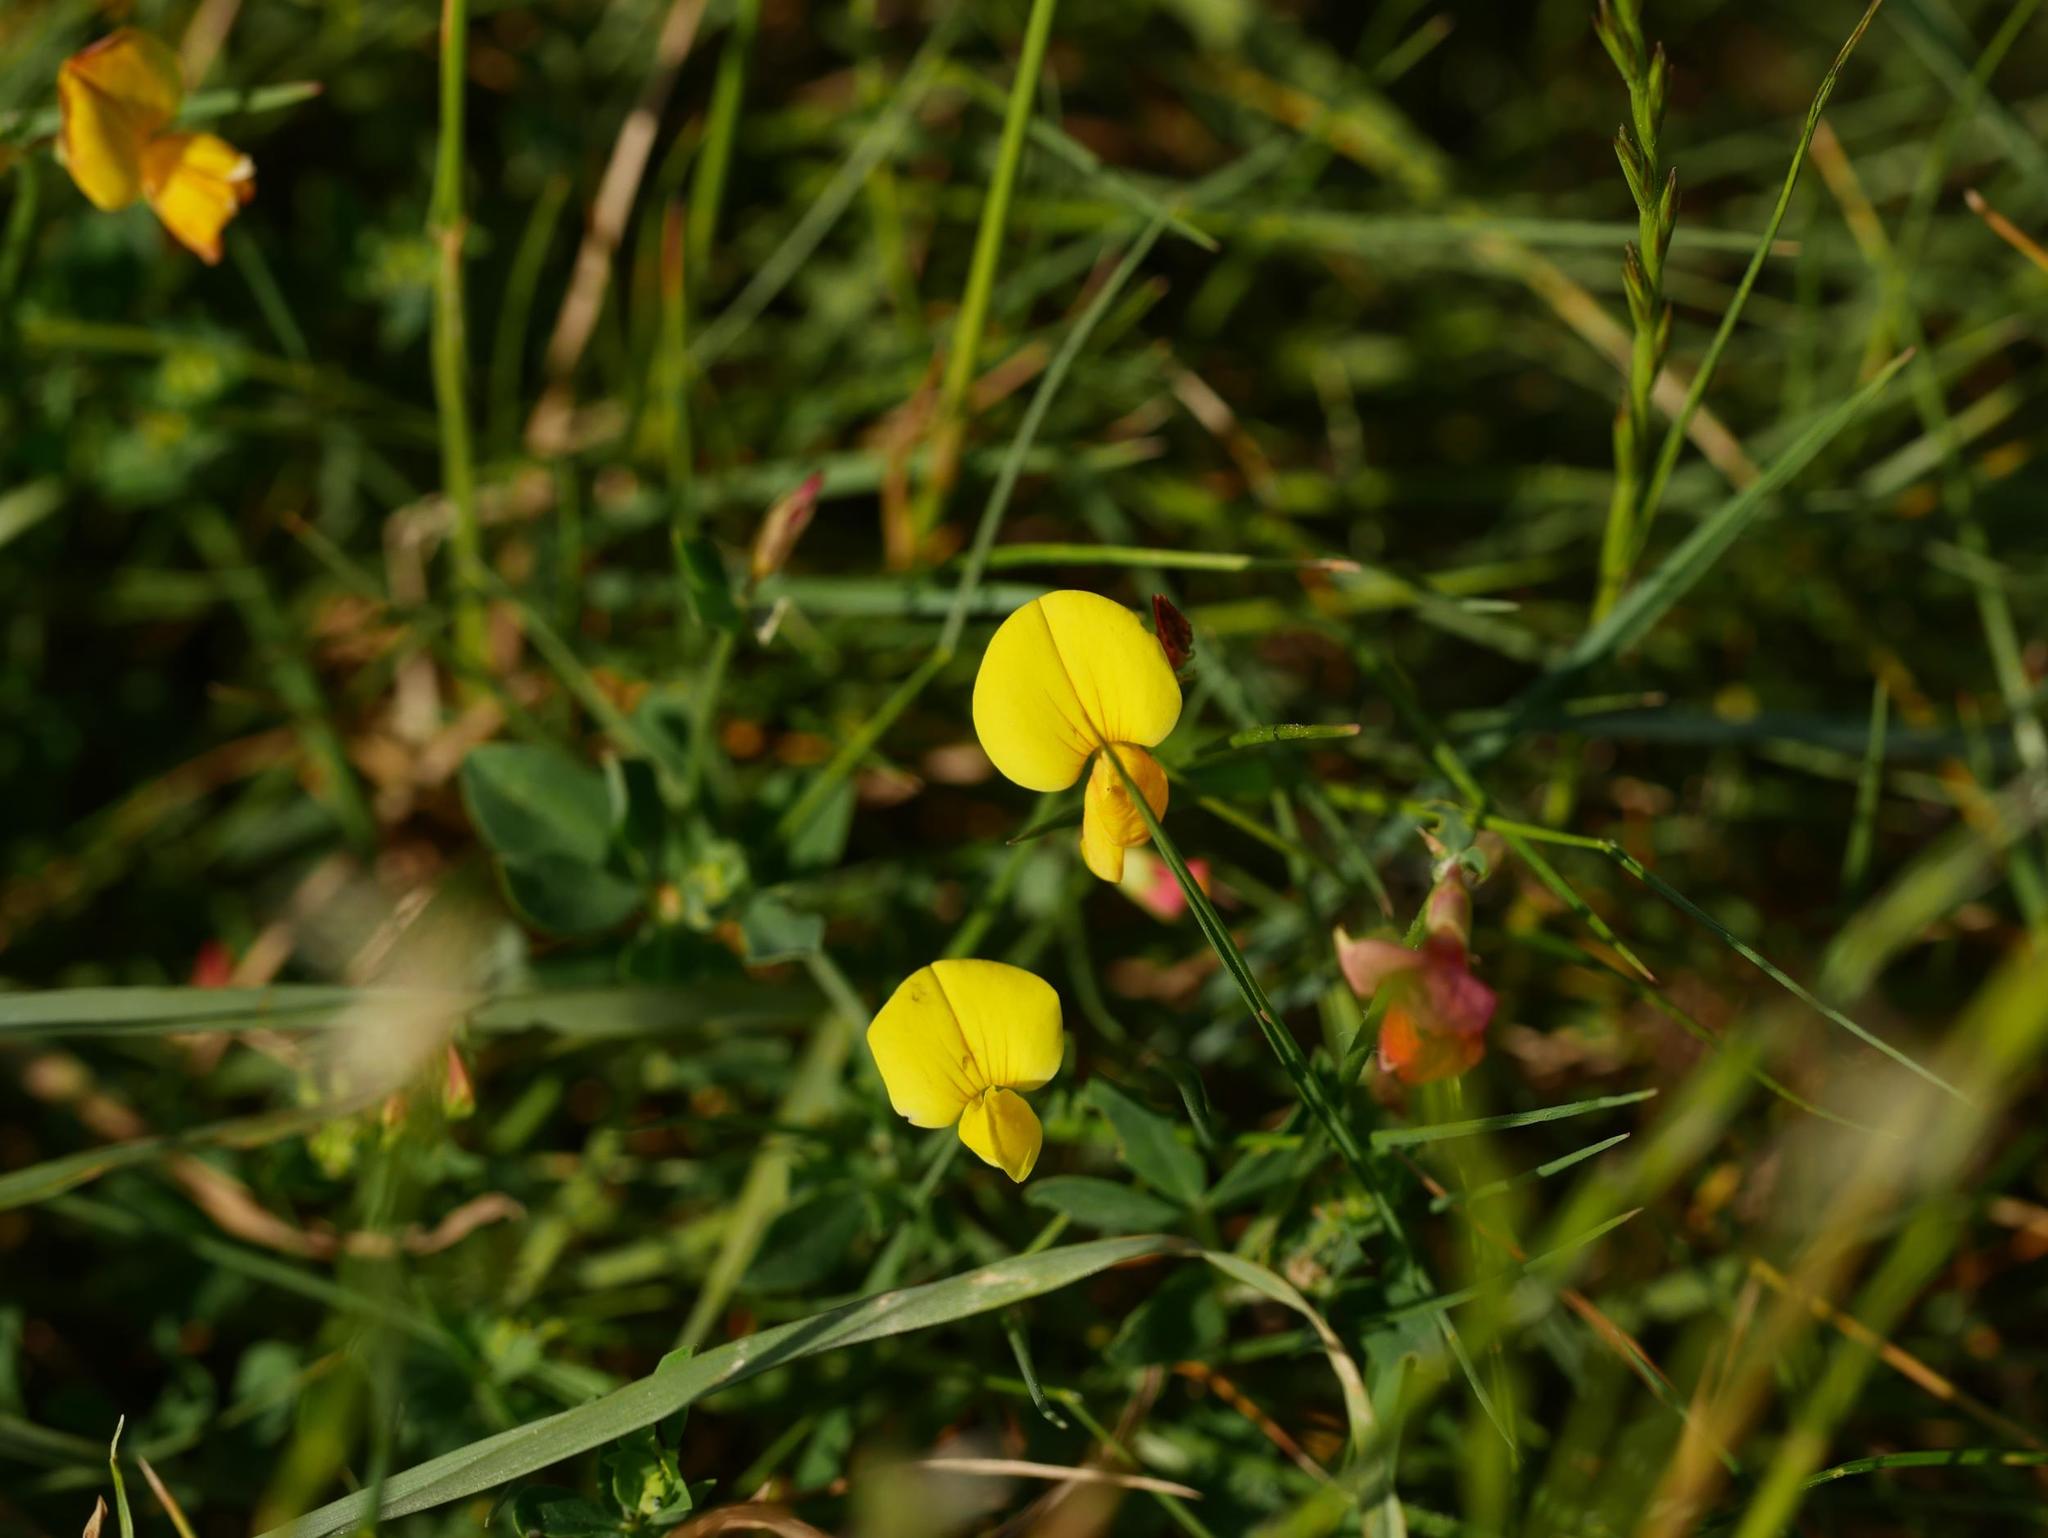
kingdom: Plantae
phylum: Tracheophyta
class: Magnoliopsida
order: Fabales
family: Fabaceae
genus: Lotus
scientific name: Lotus corniculatus
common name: Common bird's-foot-trefoil
